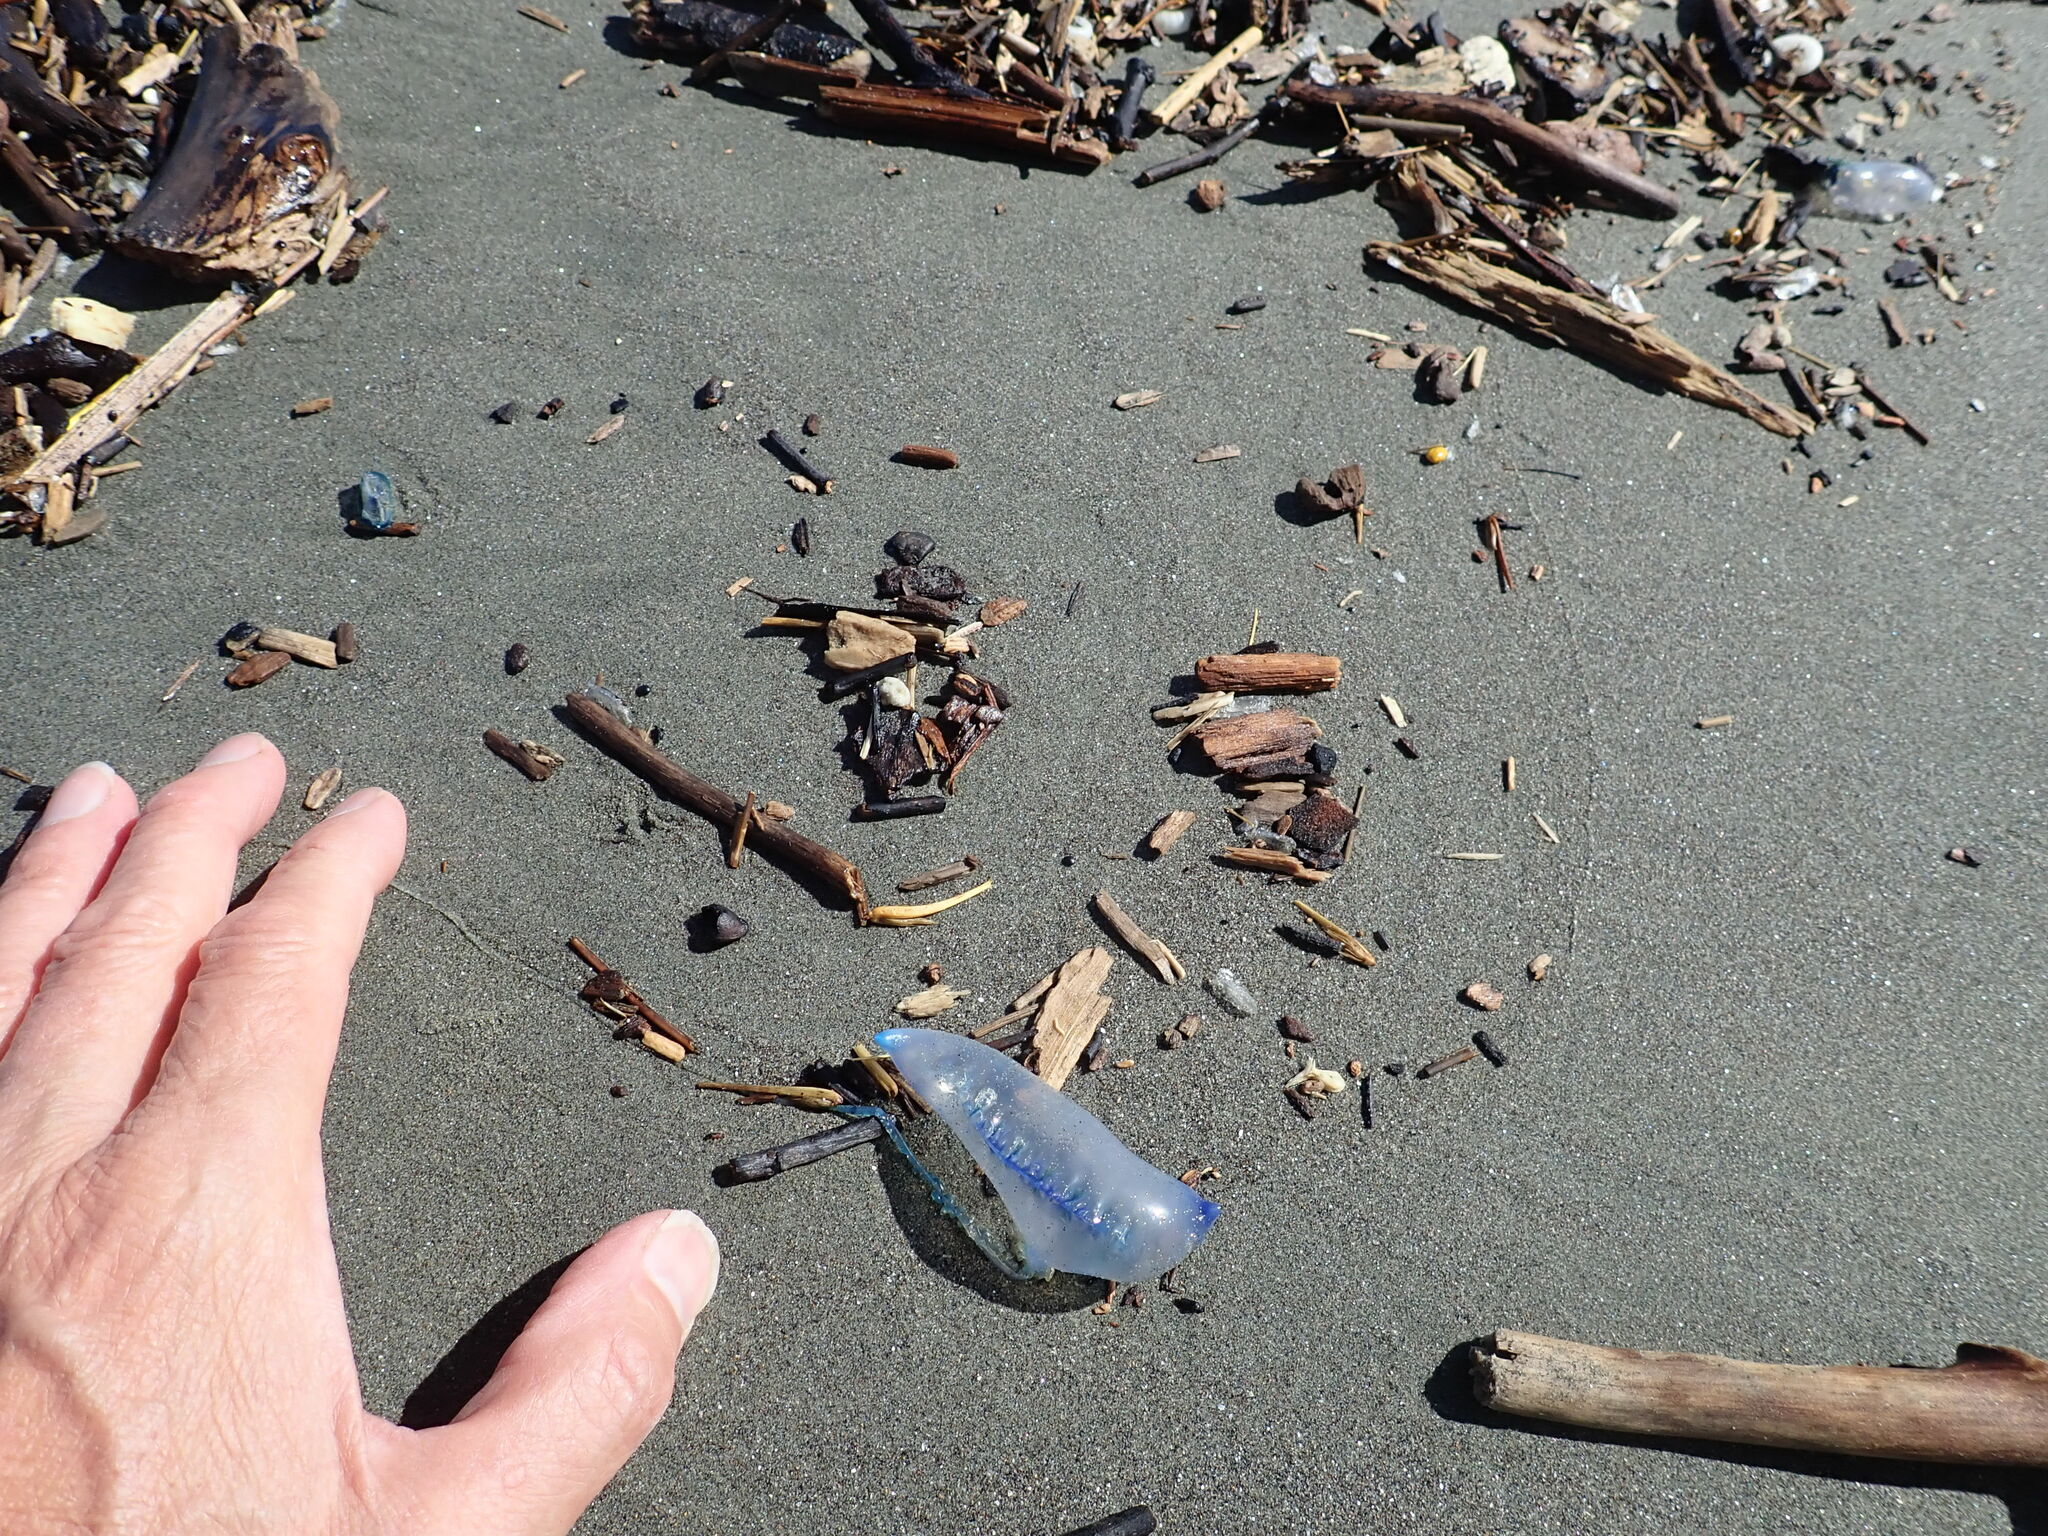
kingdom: Animalia
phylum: Cnidaria
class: Hydrozoa
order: Anthoathecata
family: Porpitidae
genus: Velella
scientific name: Velella velella
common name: By-the-wind-sailor
